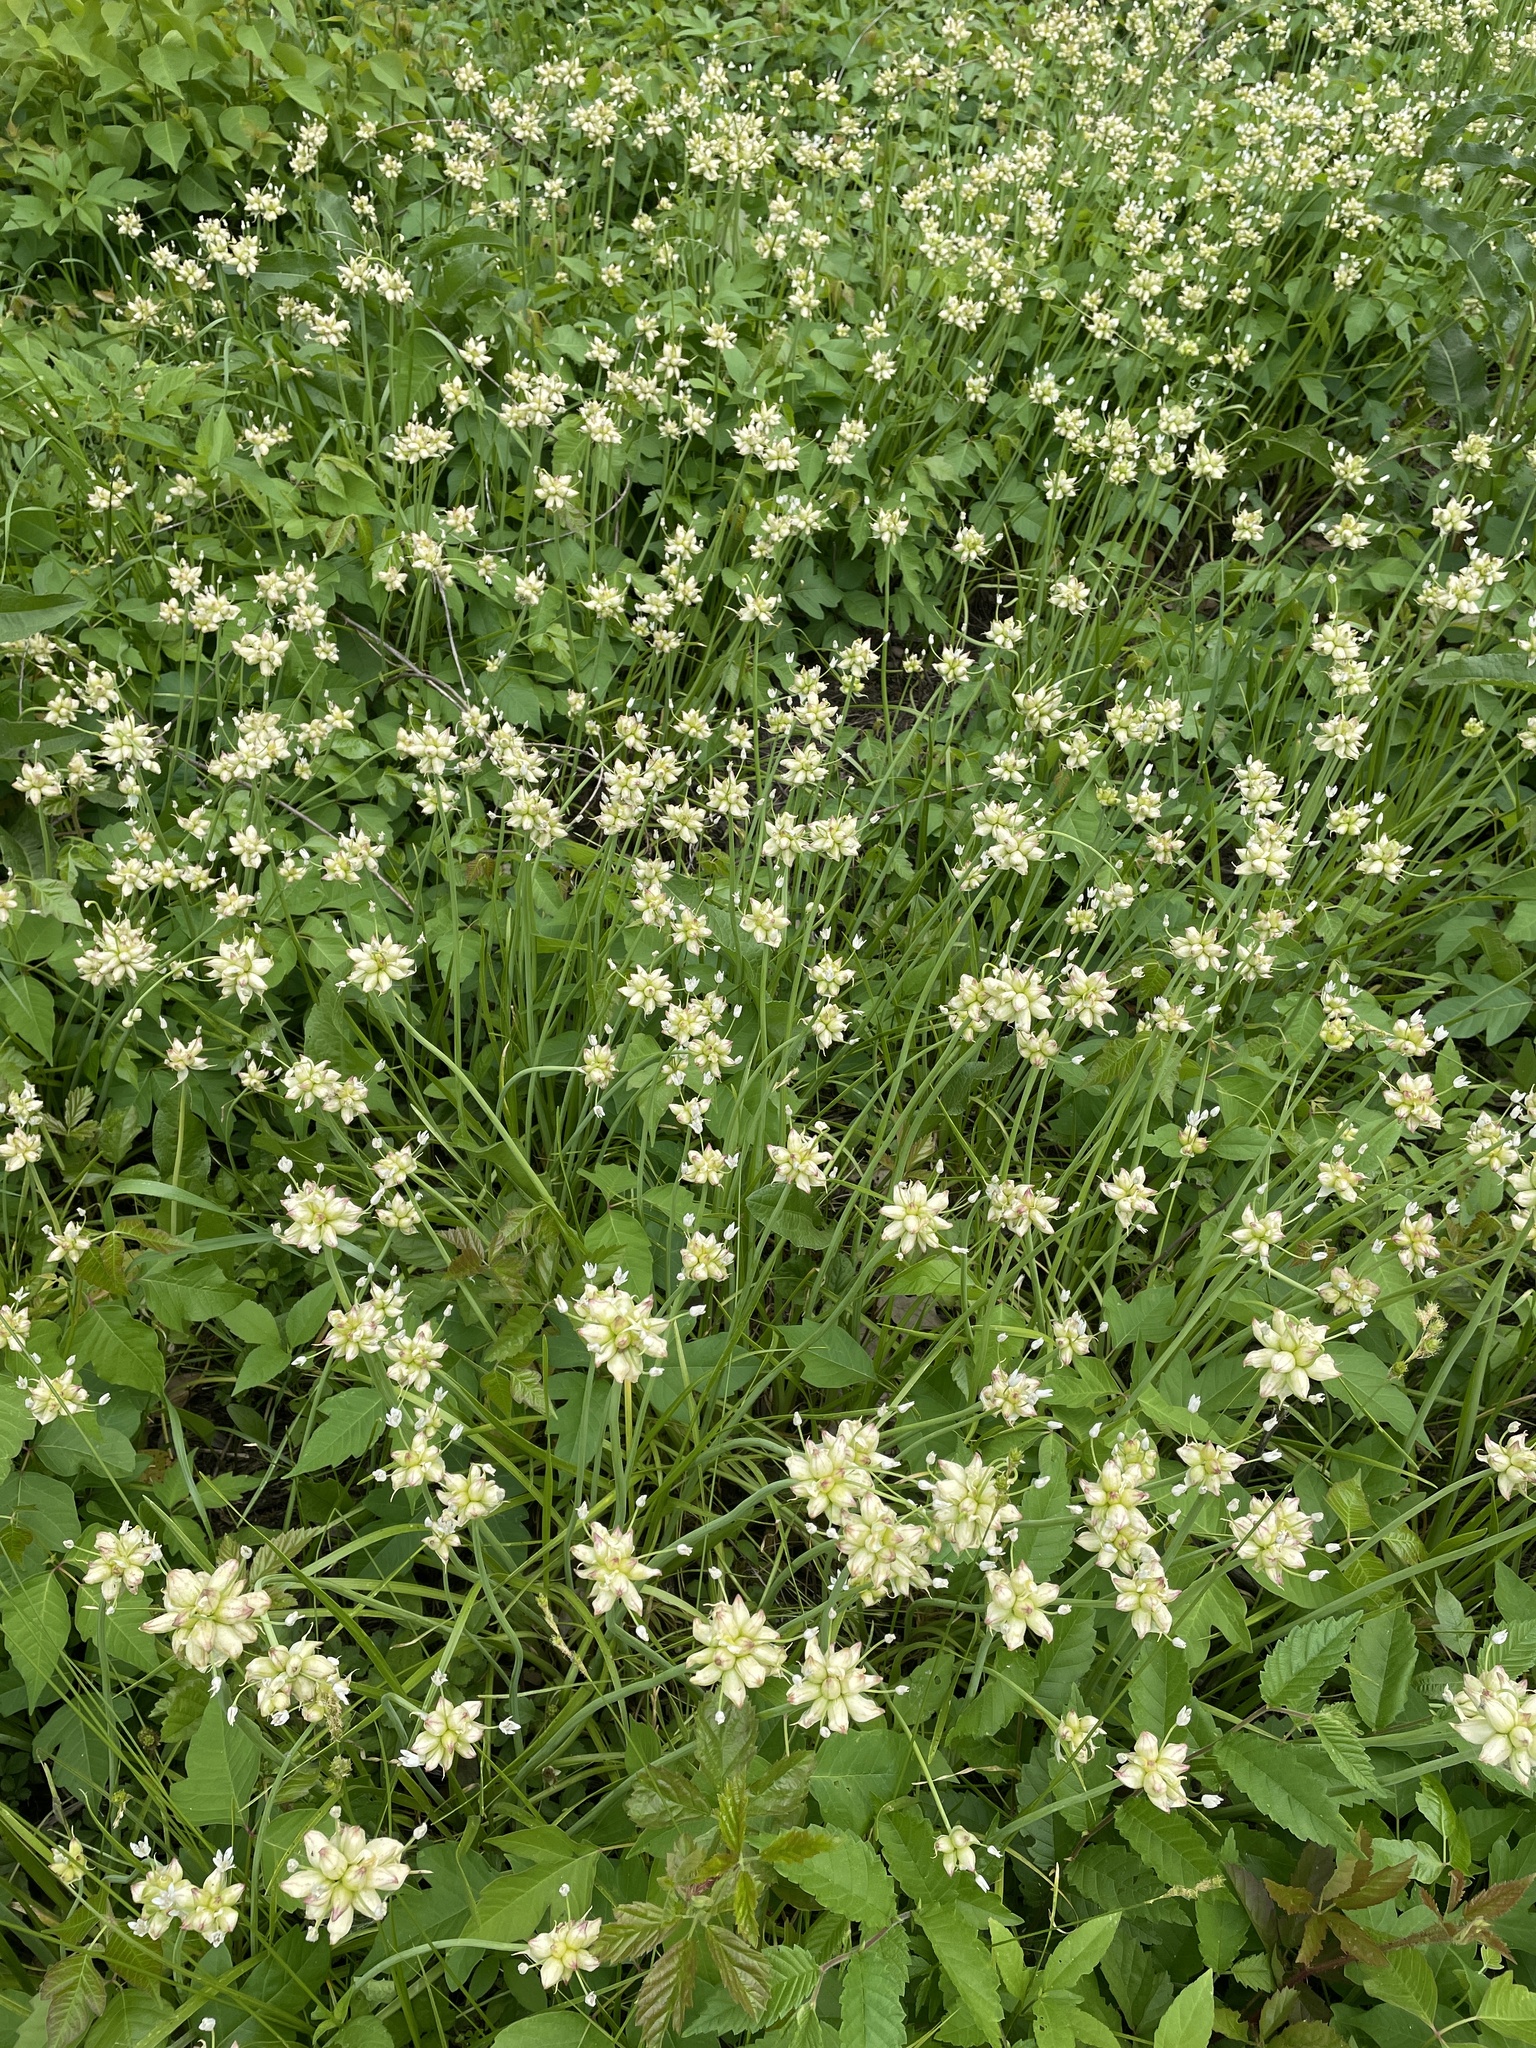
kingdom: Plantae
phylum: Tracheophyta
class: Liliopsida
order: Asparagales
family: Amaryllidaceae
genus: Allium
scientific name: Allium canadense
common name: Meadow garlic
